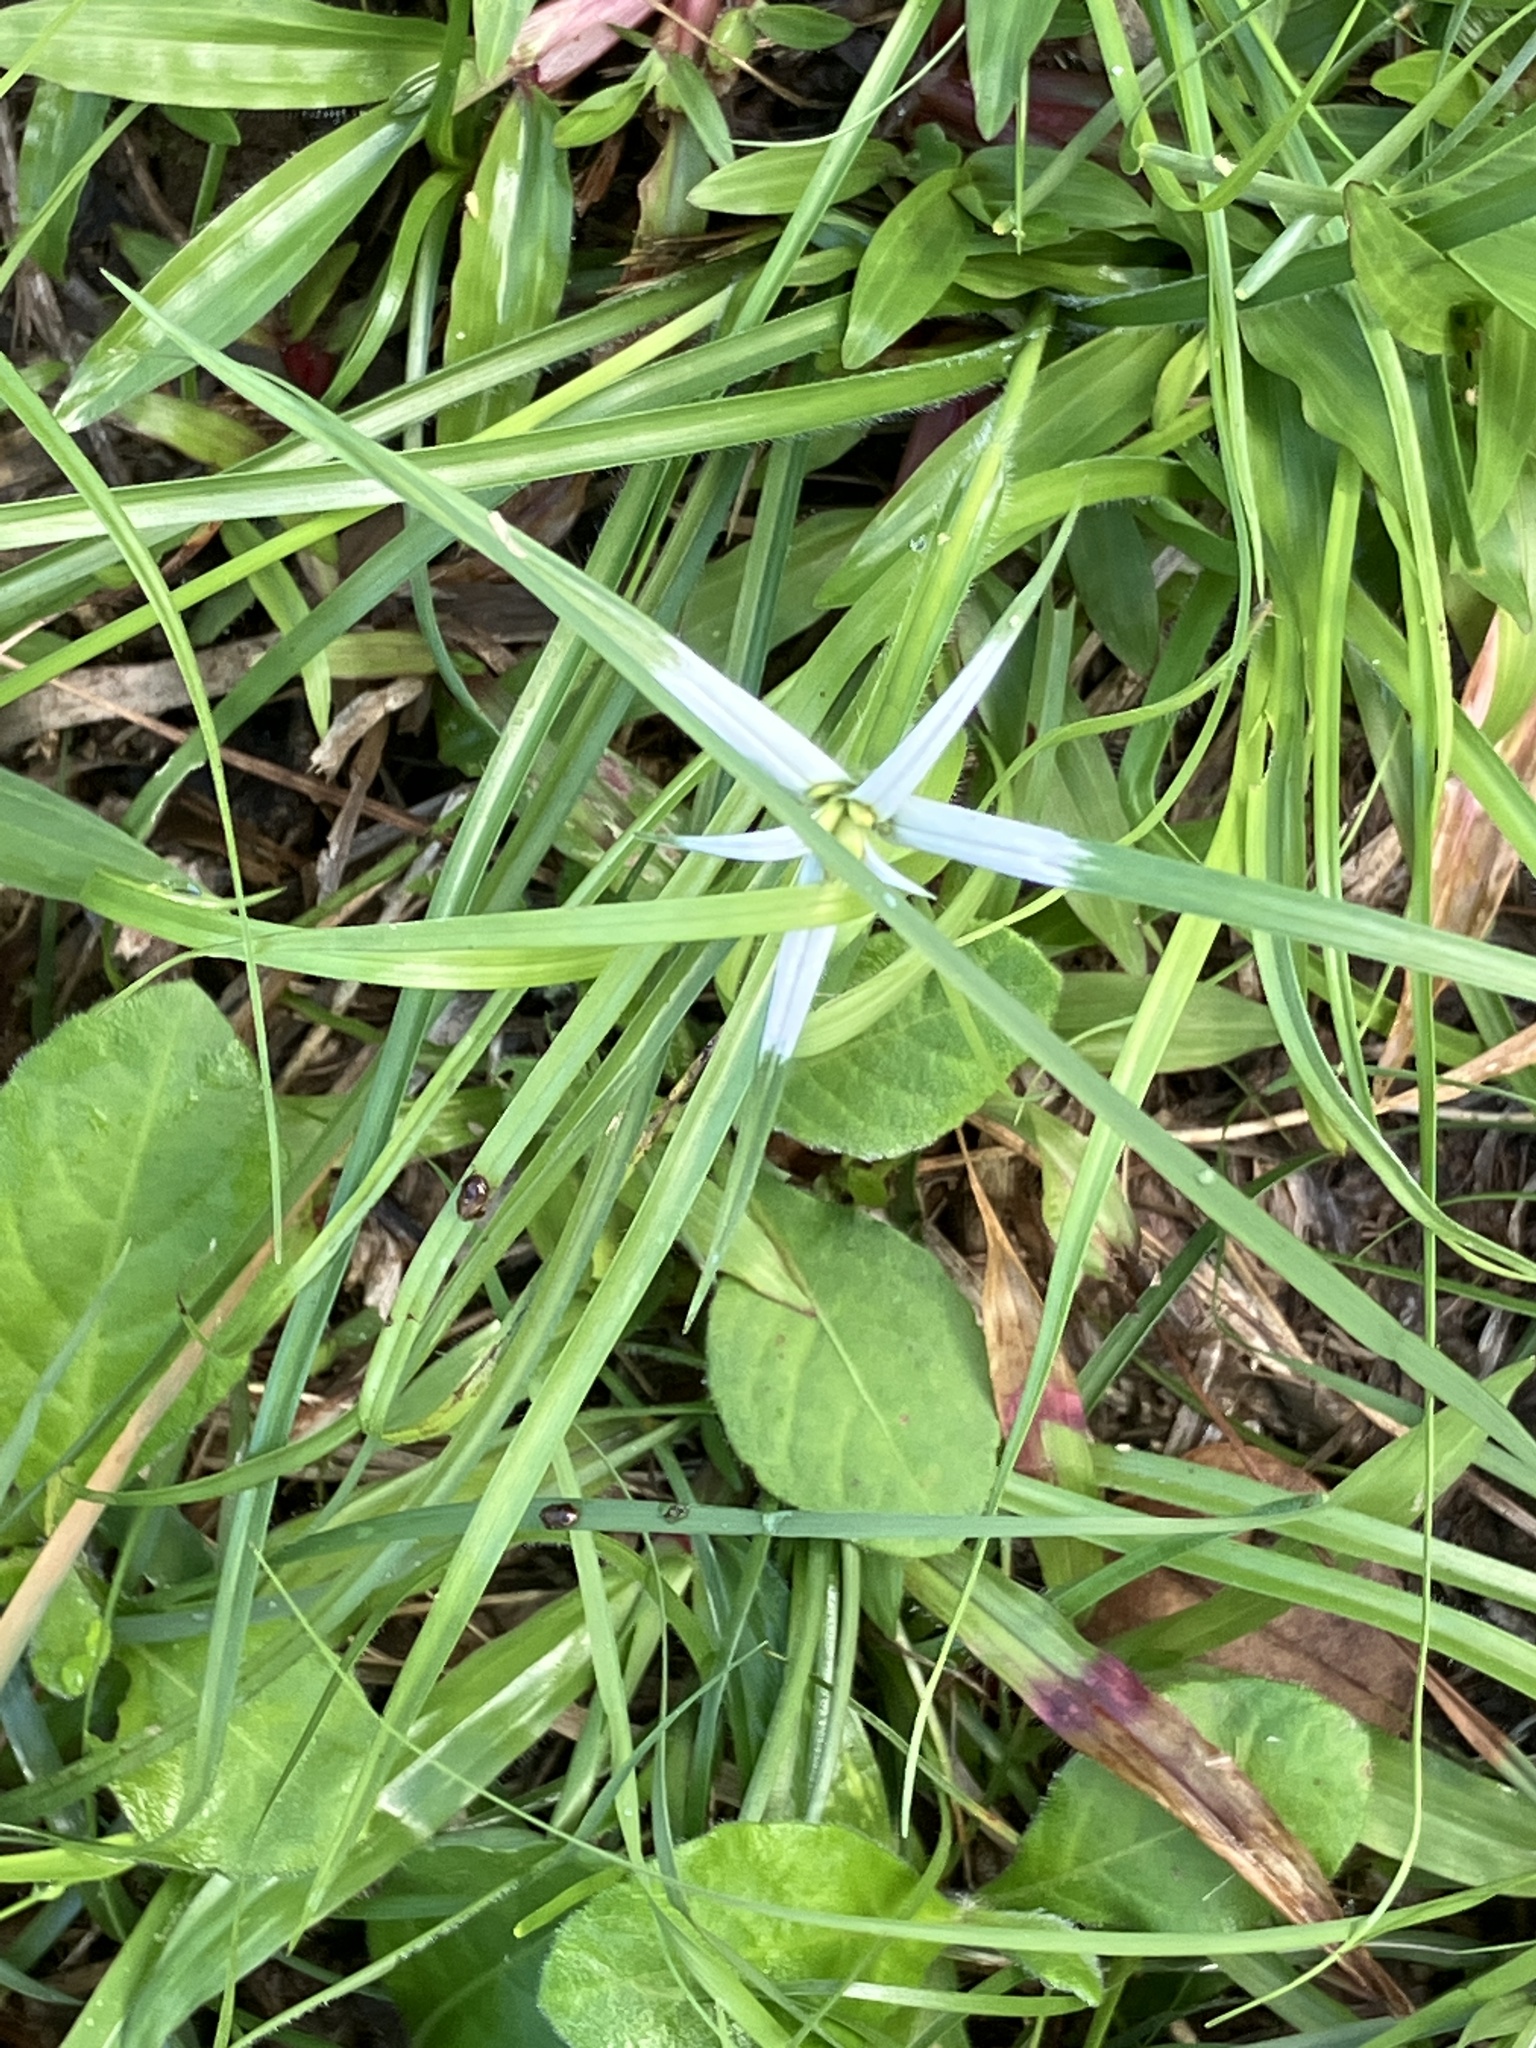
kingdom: Plantae
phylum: Tracheophyta
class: Liliopsida
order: Poales
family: Cyperaceae
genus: Rhynchospora
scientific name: Rhynchospora nervosa
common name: Star sedge
